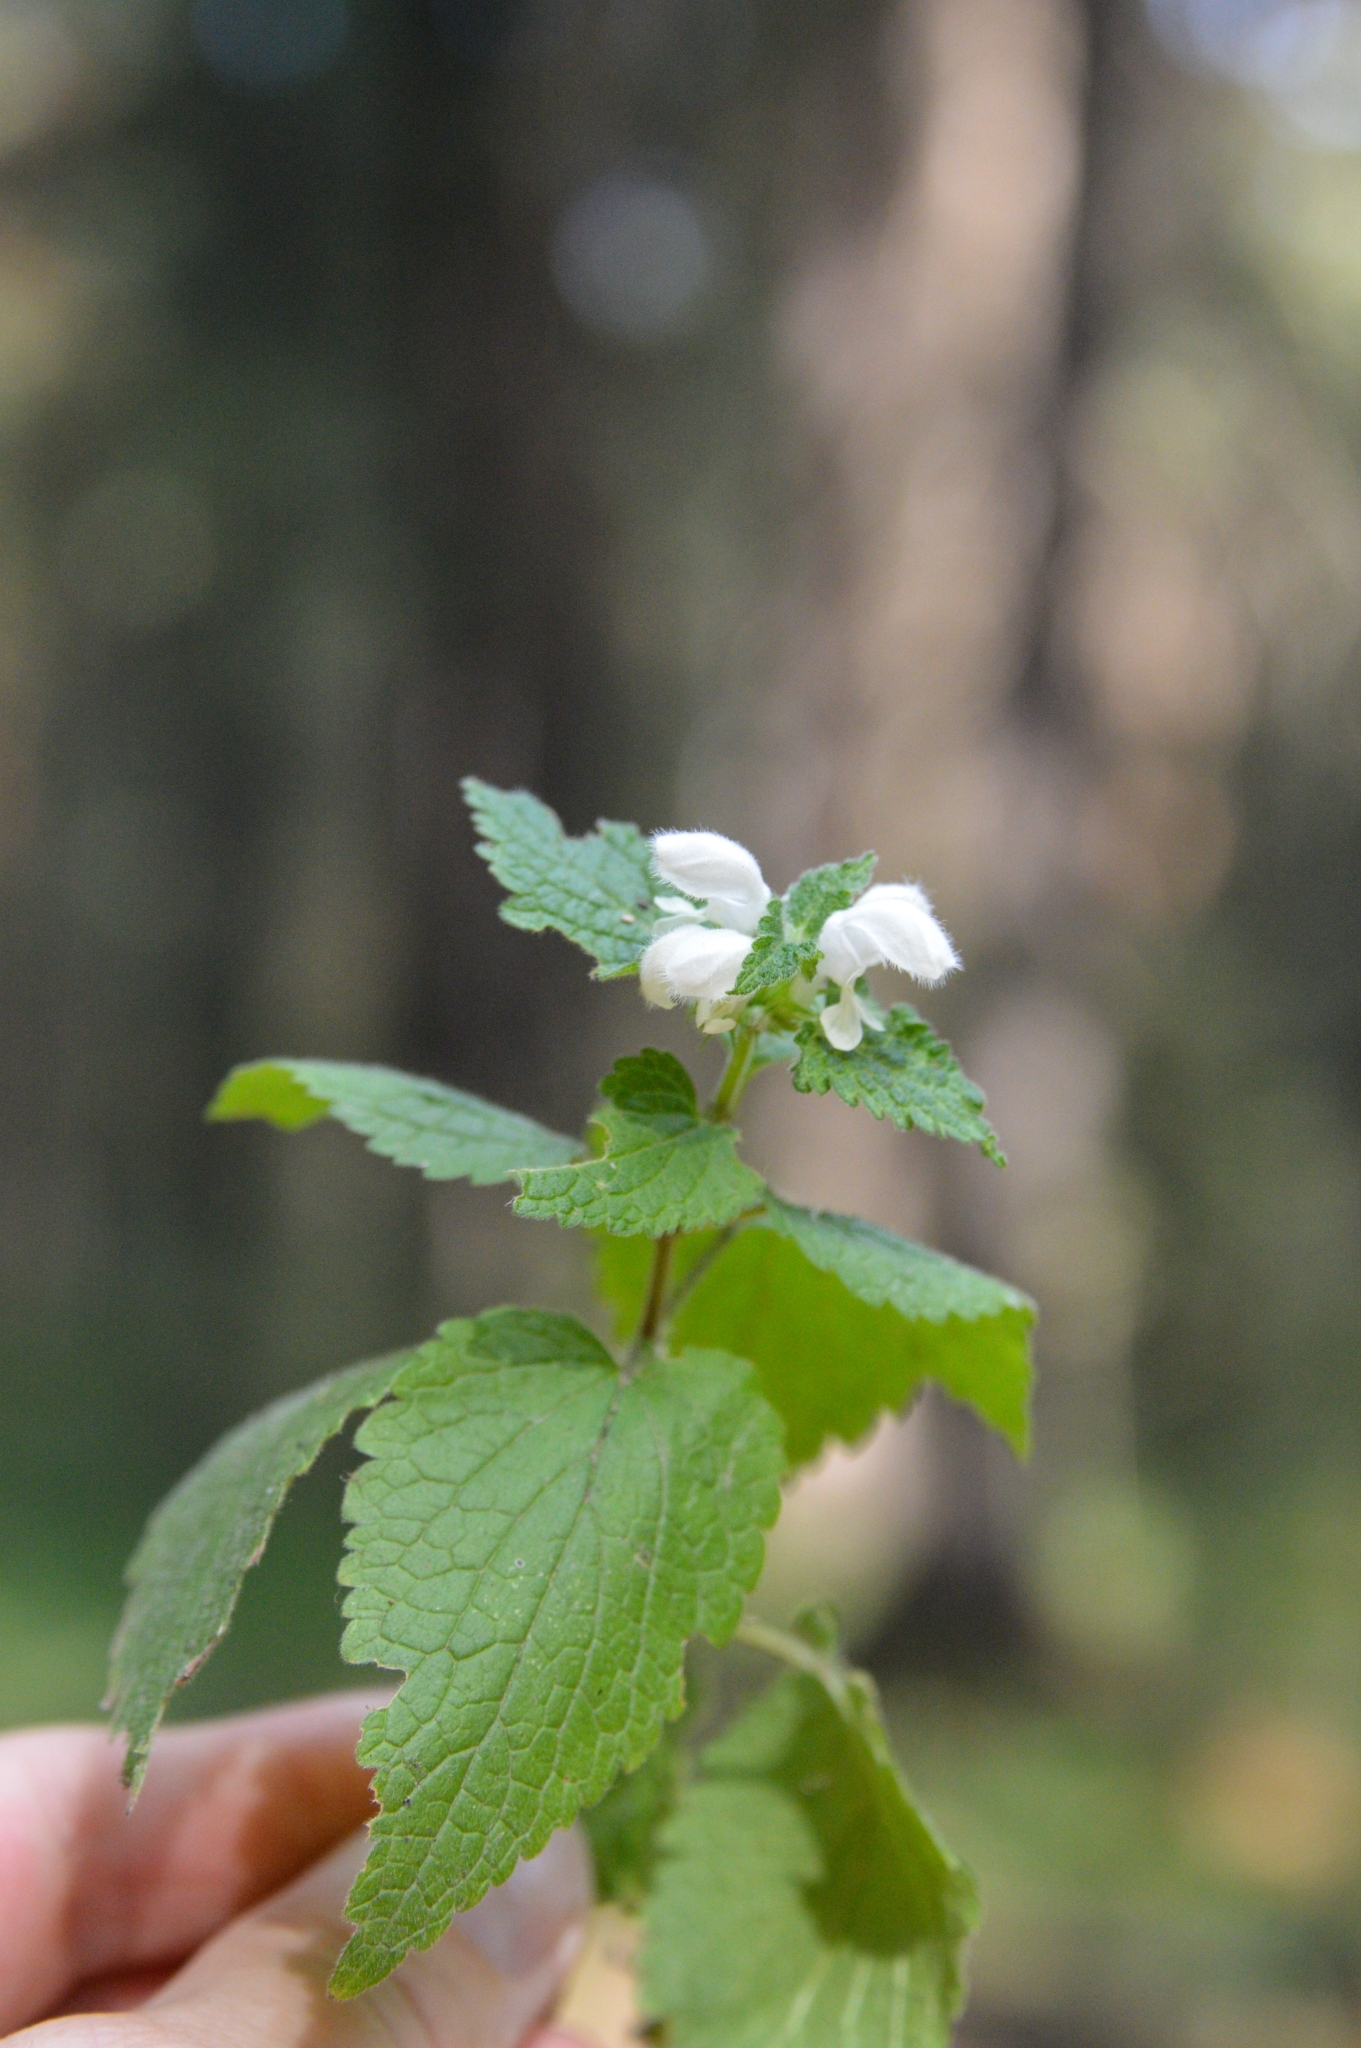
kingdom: Plantae
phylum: Tracheophyta
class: Magnoliopsida
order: Lamiales
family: Lamiaceae
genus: Lamium
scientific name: Lamium album
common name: White dead-nettle
